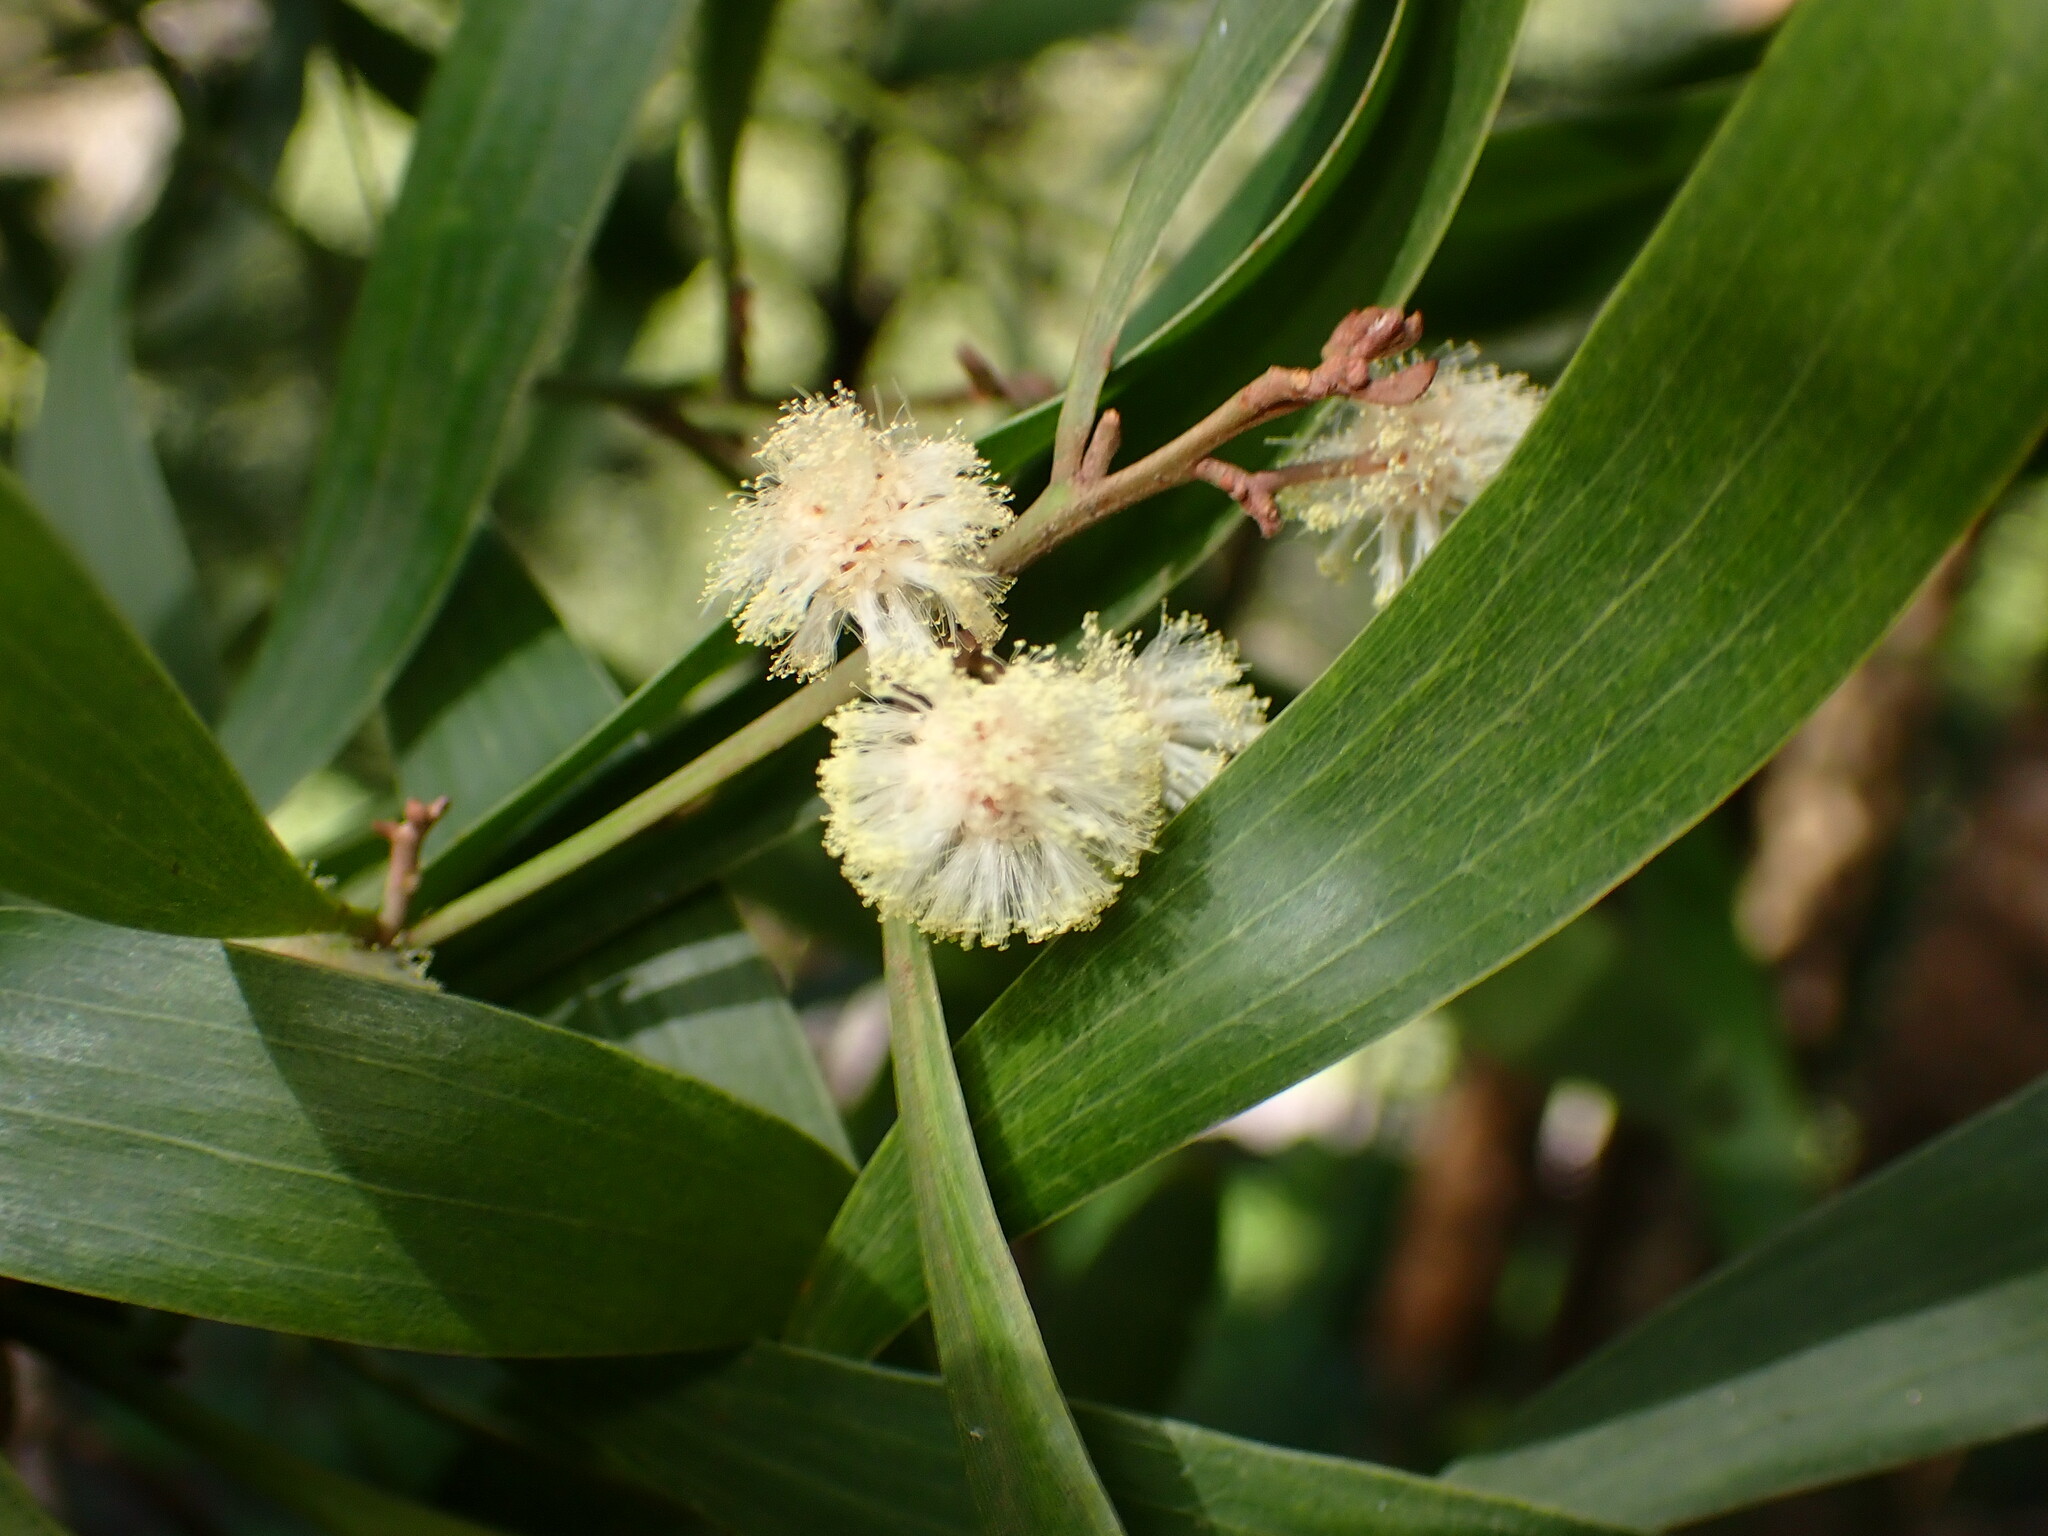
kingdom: Plantae
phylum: Tracheophyta
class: Magnoliopsida
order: Fabales
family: Fabaceae
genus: Acacia
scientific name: Acacia melanoxylon
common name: Blackwood
